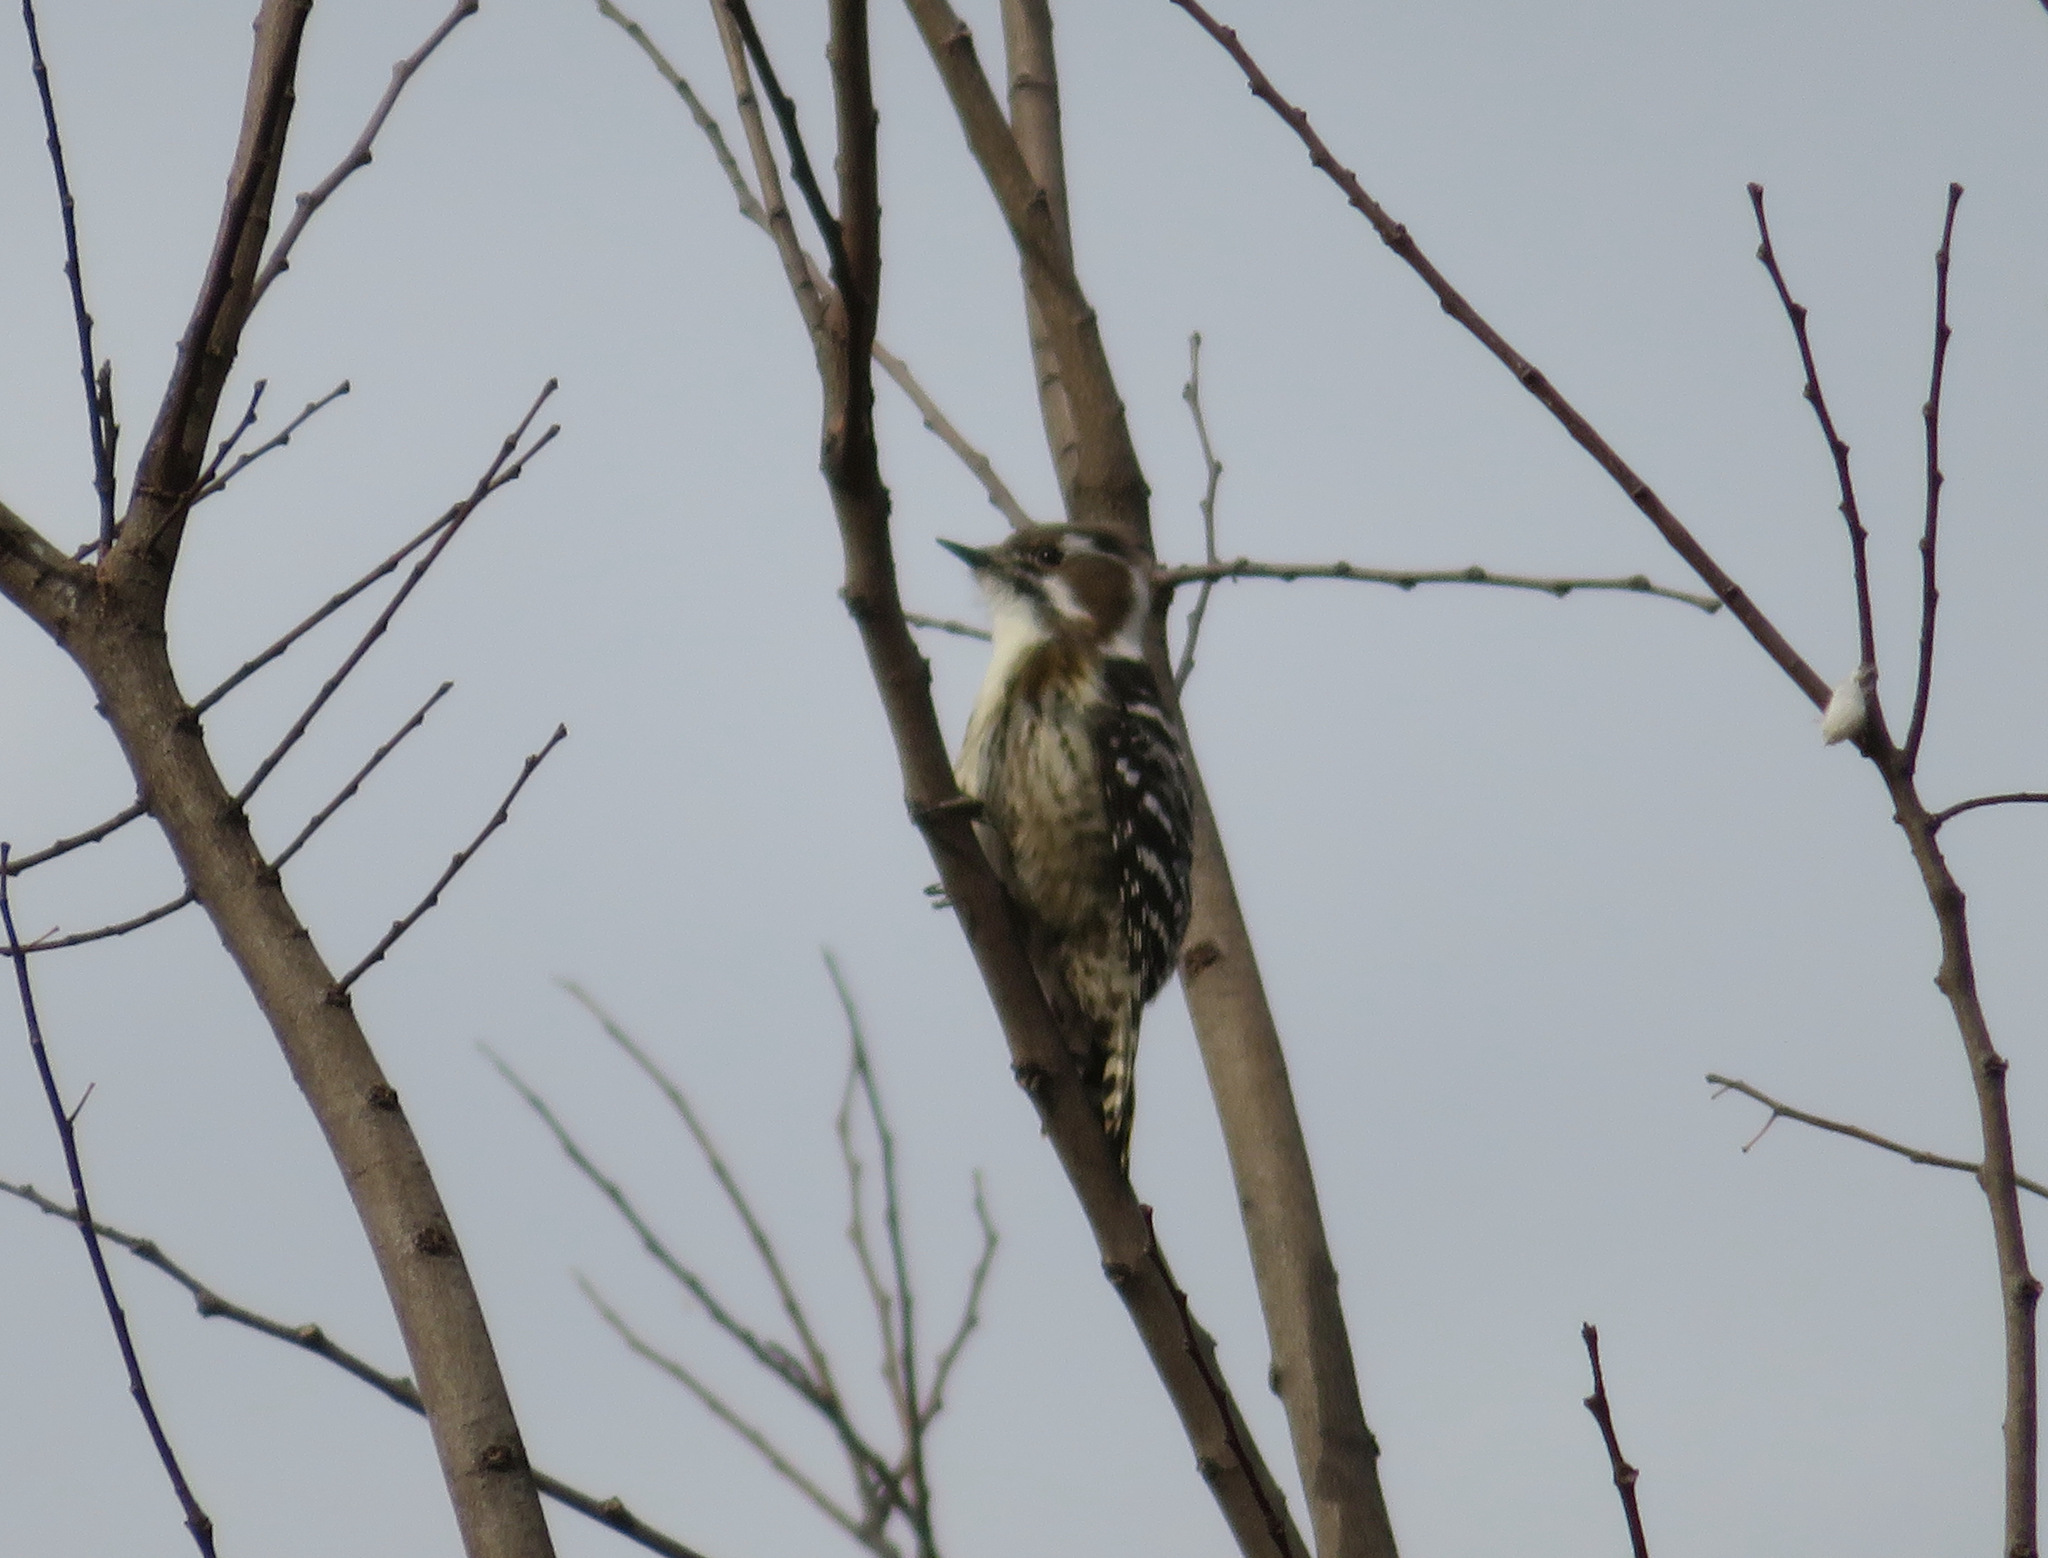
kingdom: Animalia
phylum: Chordata
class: Aves
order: Piciformes
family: Picidae
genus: Yungipicus
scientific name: Yungipicus kizuki
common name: Japanese pygmy woodpecker
